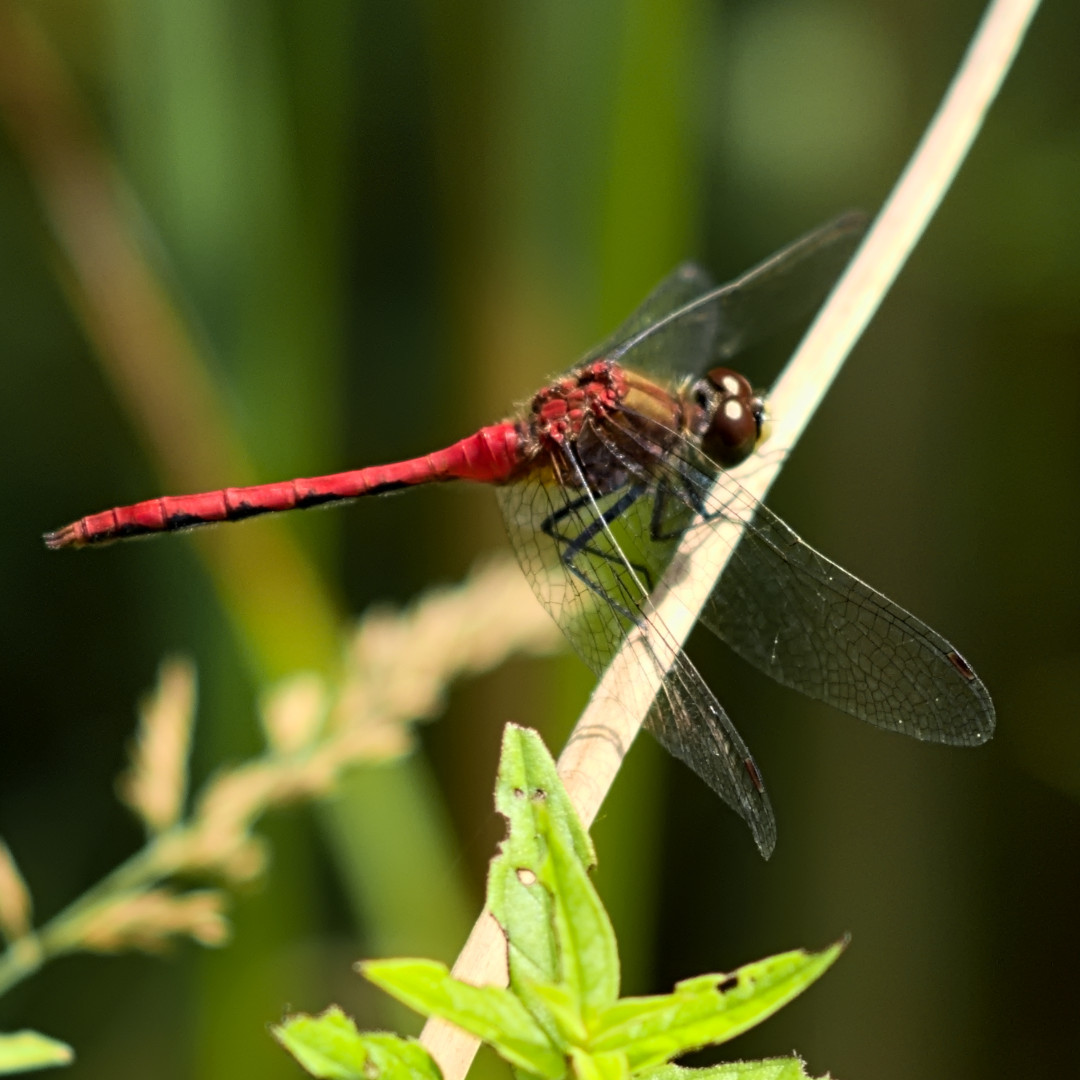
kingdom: Animalia
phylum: Arthropoda
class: Insecta
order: Odonata
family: Libellulidae
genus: Sympetrum
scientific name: Sympetrum obtrusum
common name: White-faced meadowhawk
